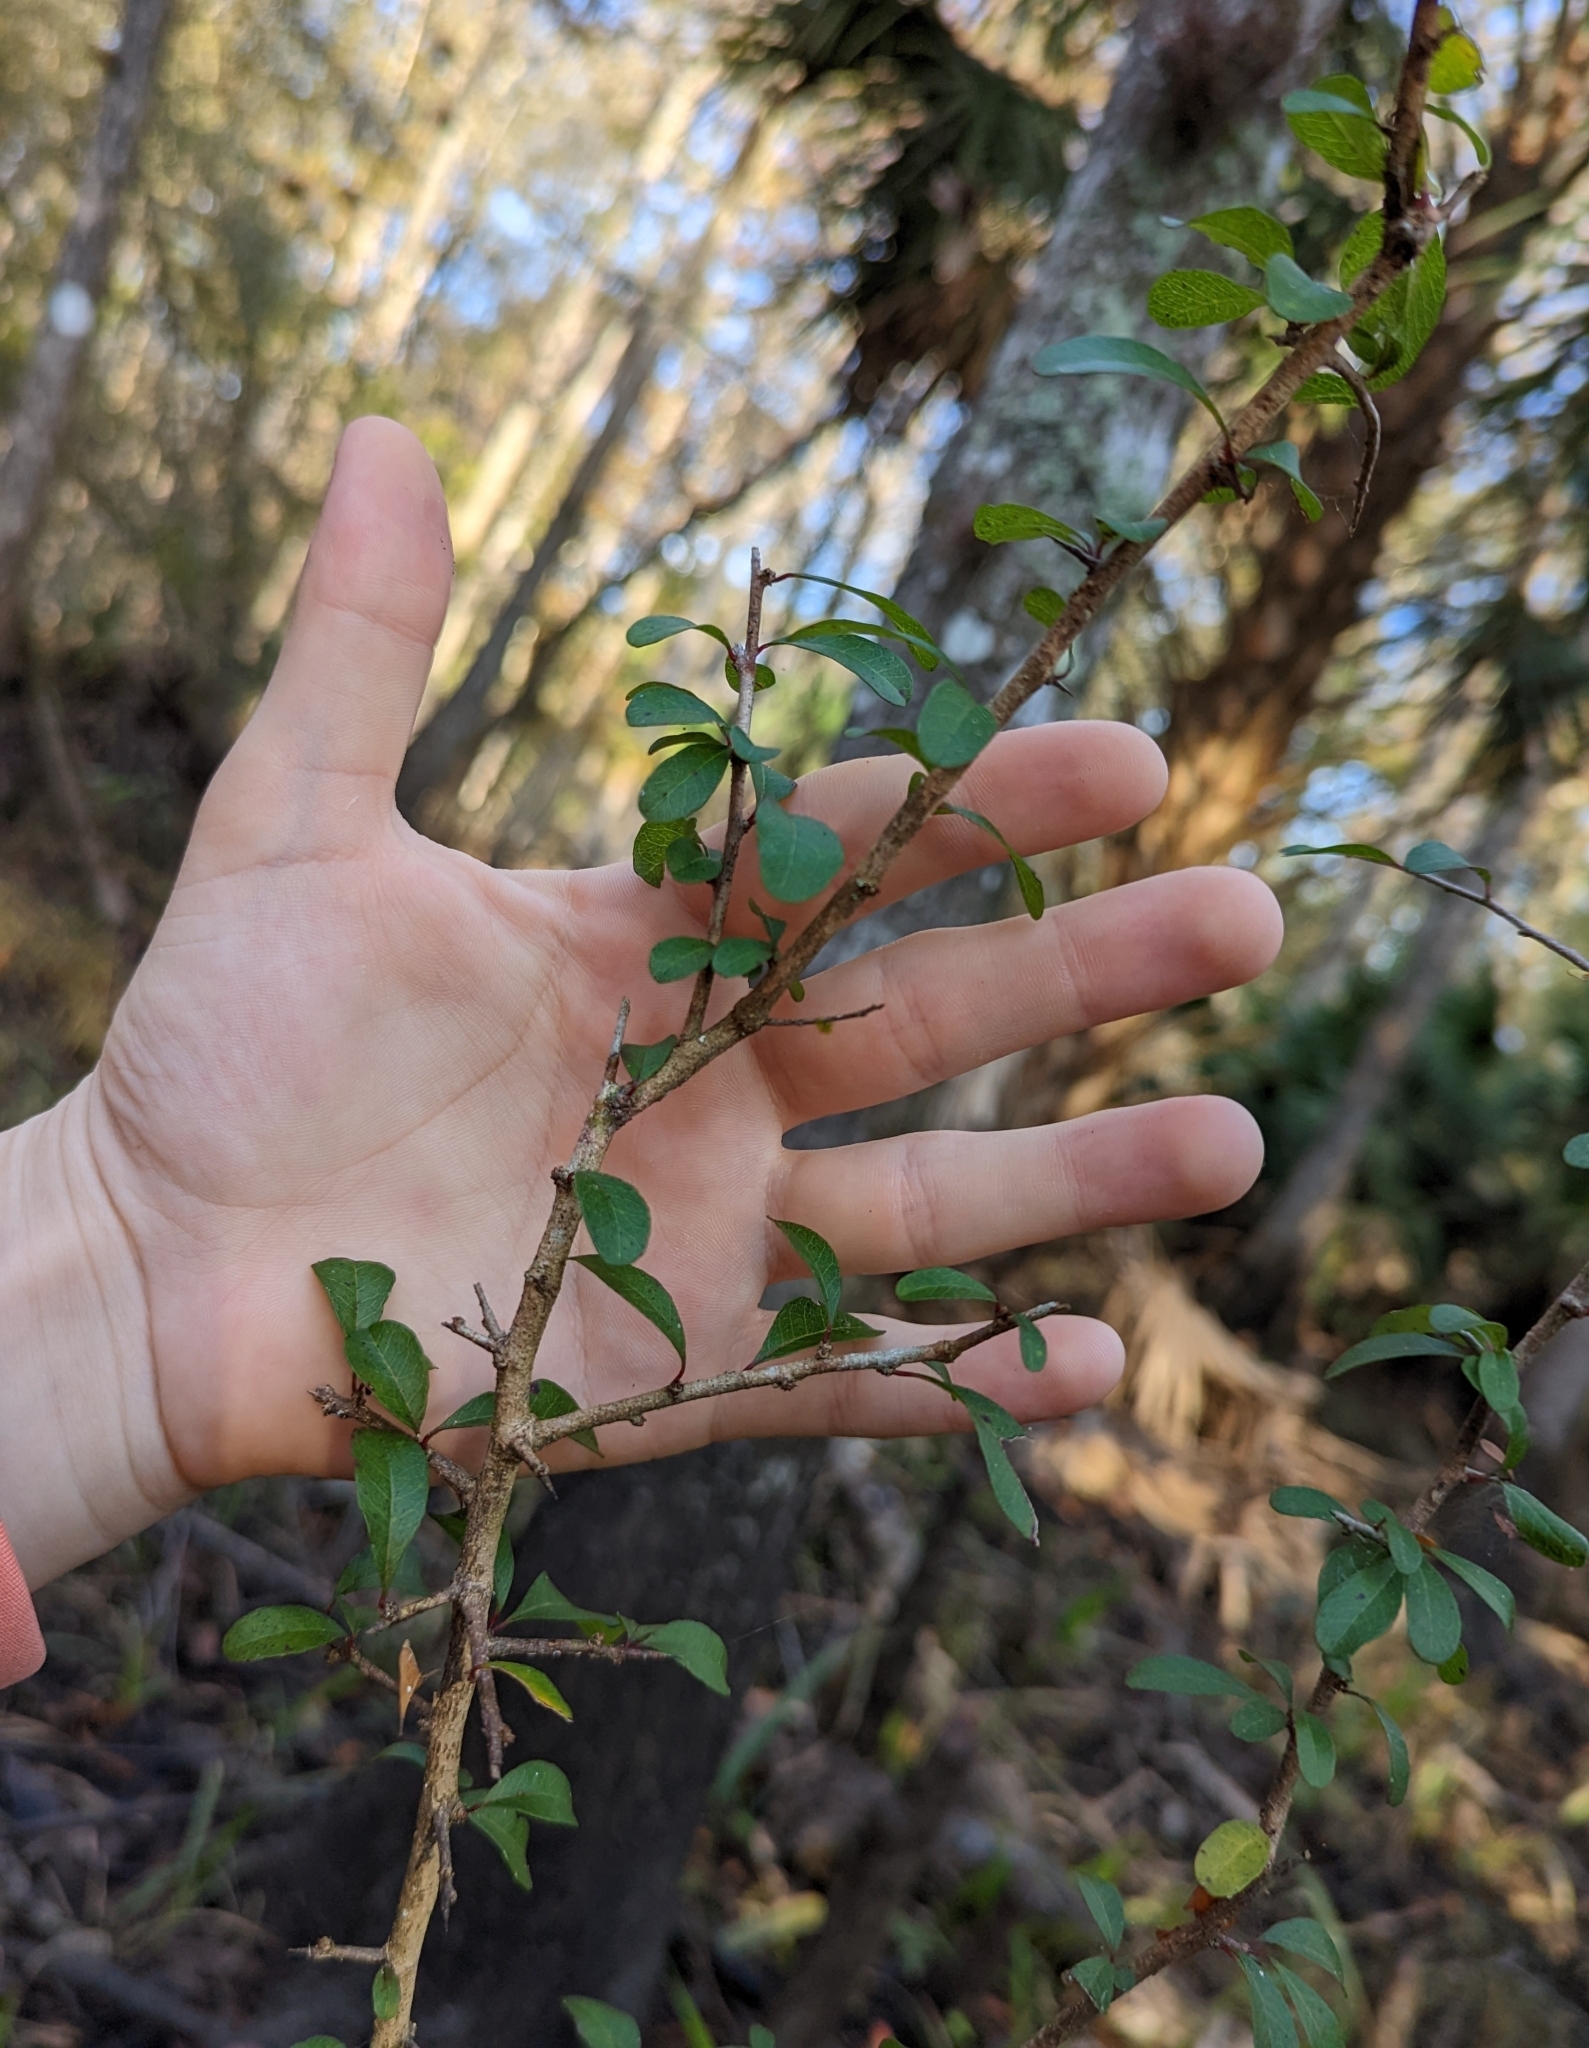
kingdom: Plantae
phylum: Tracheophyta
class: Magnoliopsida
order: Ericales
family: Sapotaceae
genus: Sideroxylon
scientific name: Sideroxylon reclinatum
